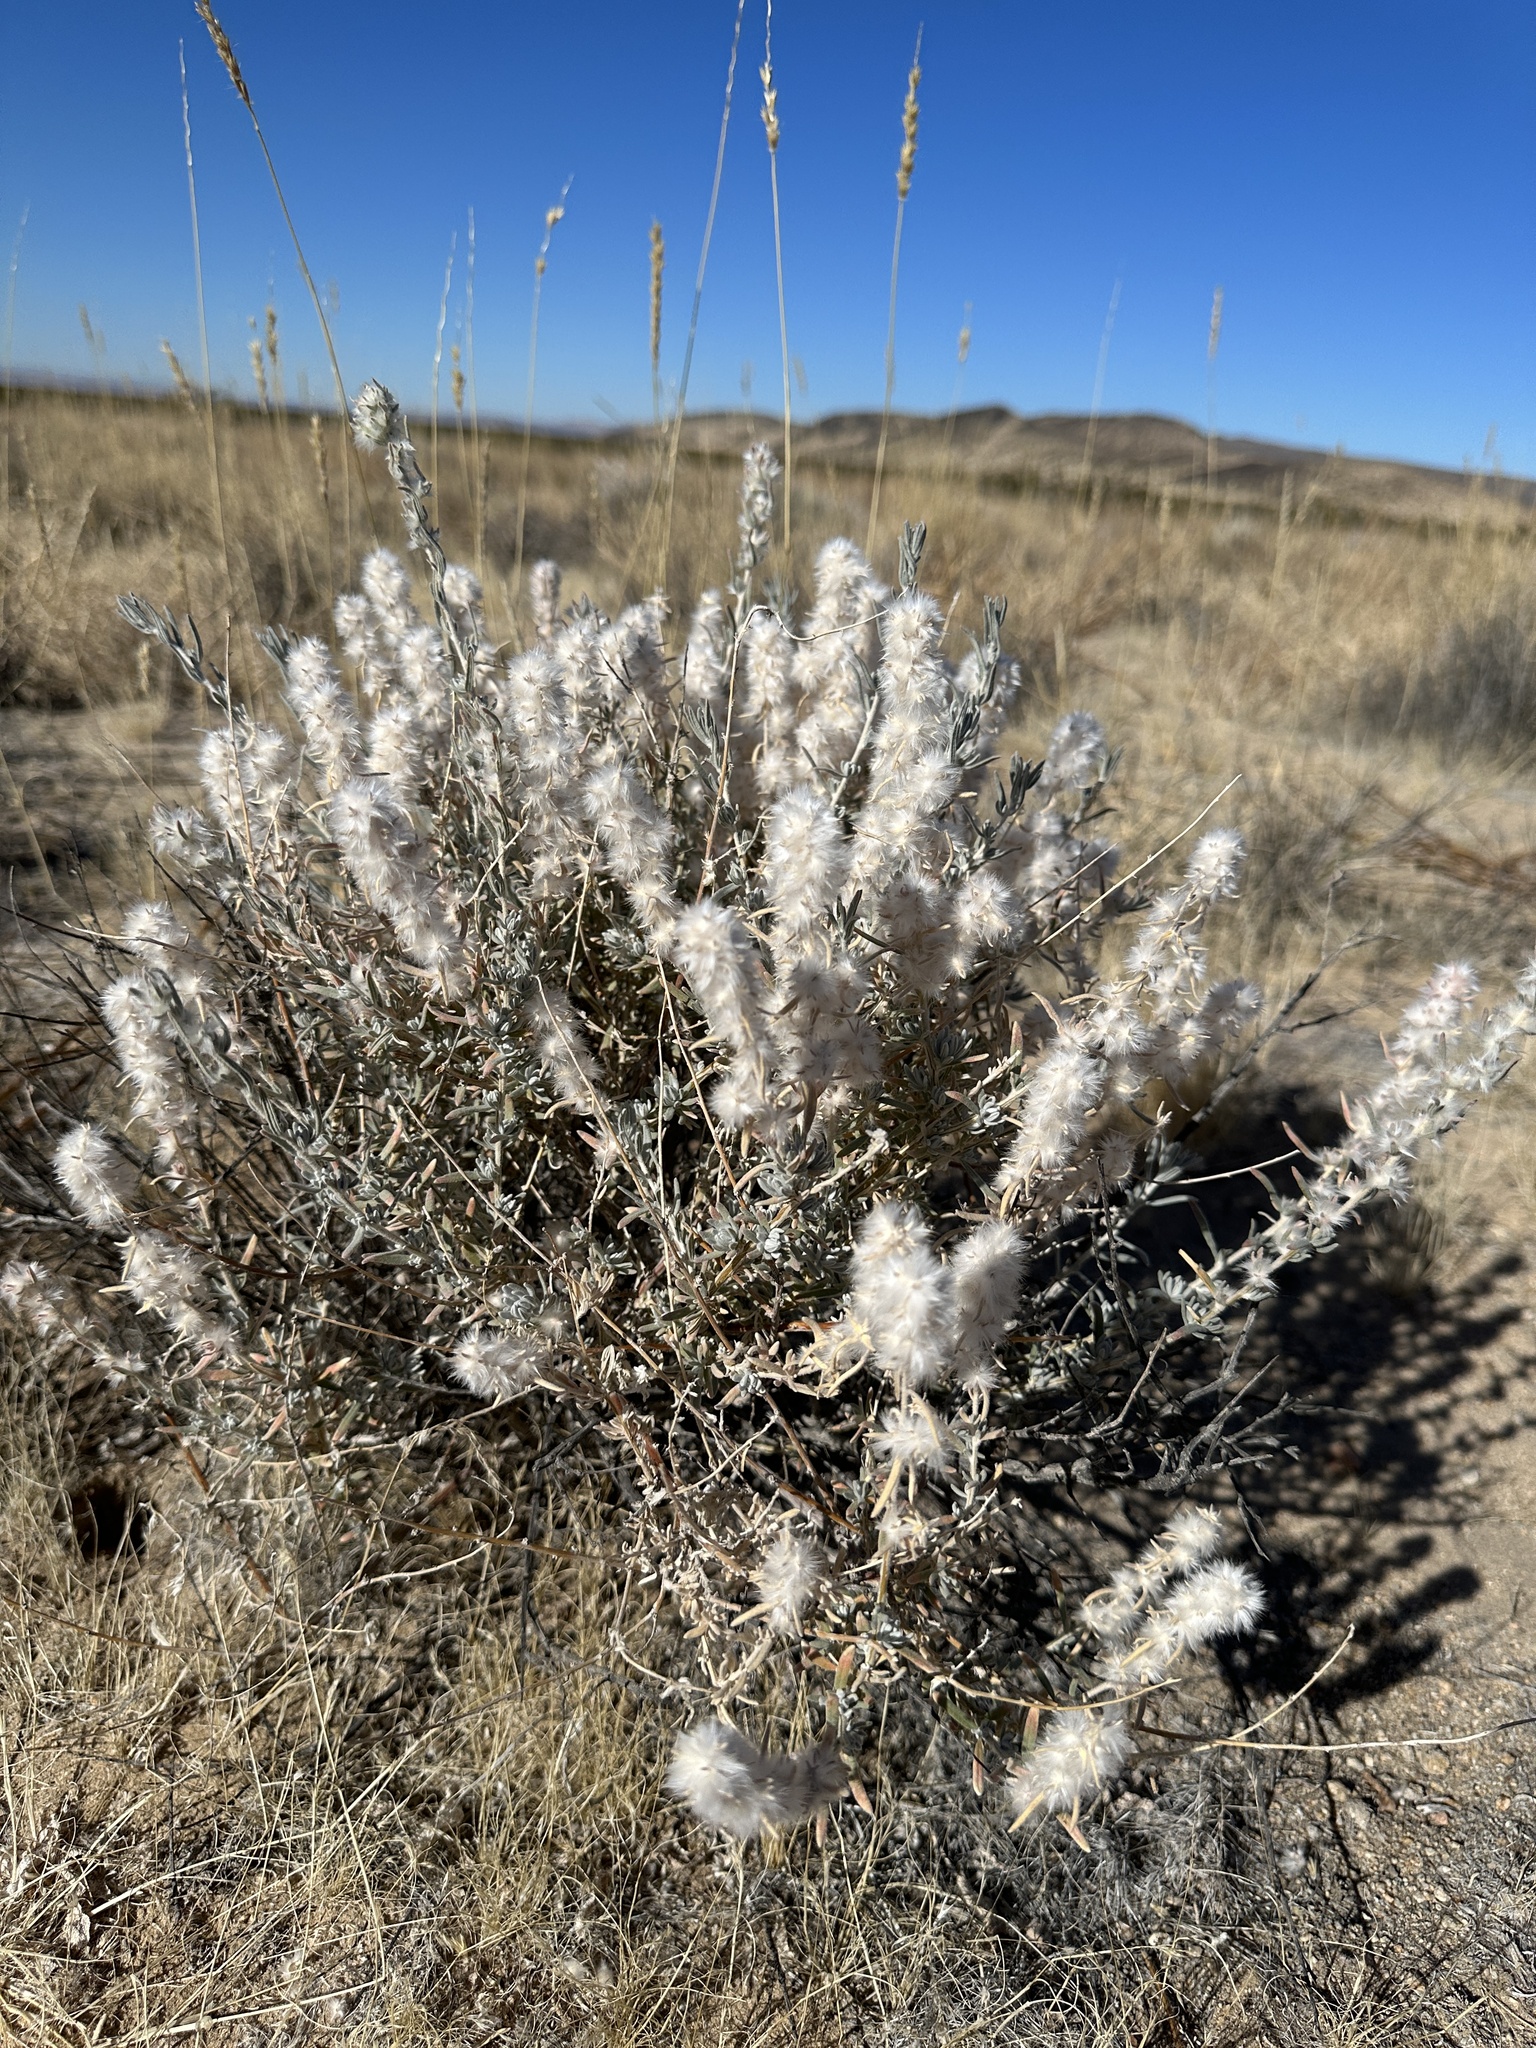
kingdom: Plantae
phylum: Tracheophyta
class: Magnoliopsida
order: Caryophyllales
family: Amaranthaceae
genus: Krascheninnikovia
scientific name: Krascheninnikovia lanata
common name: Winterfat
